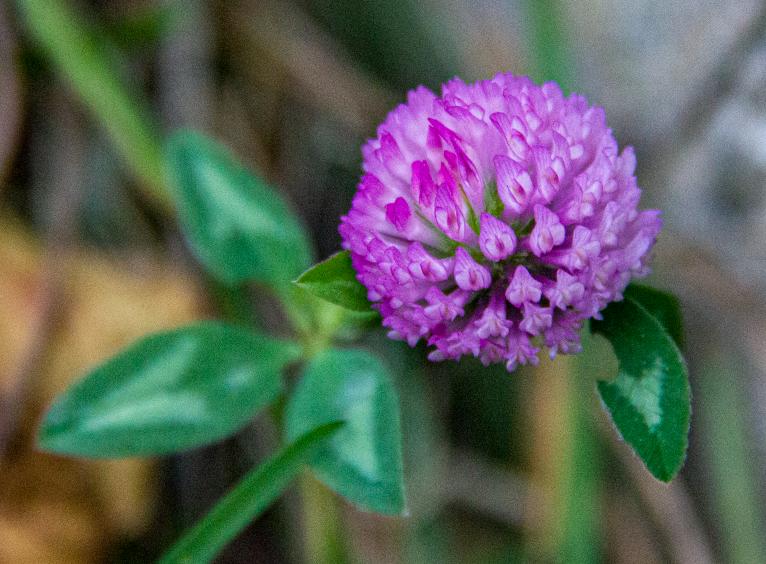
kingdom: Plantae
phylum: Tracheophyta
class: Magnoliopsida
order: Fabales
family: Fabaceae
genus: Trifolium
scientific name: Trifolium pratense
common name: Red clover
